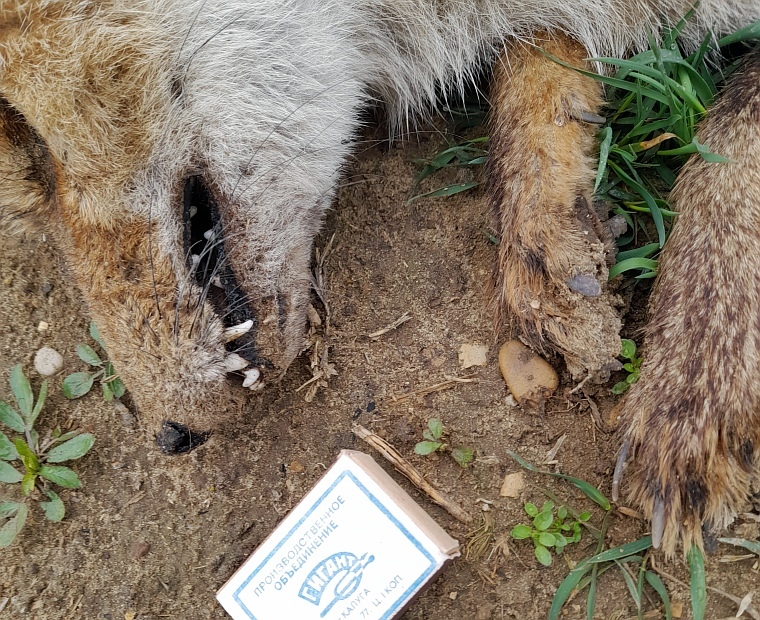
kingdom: Animalia
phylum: Chordata
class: Mammalia
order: Carnivora
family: Canidae
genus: Vulpes
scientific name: Vulpes vulpes
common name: Red fox
